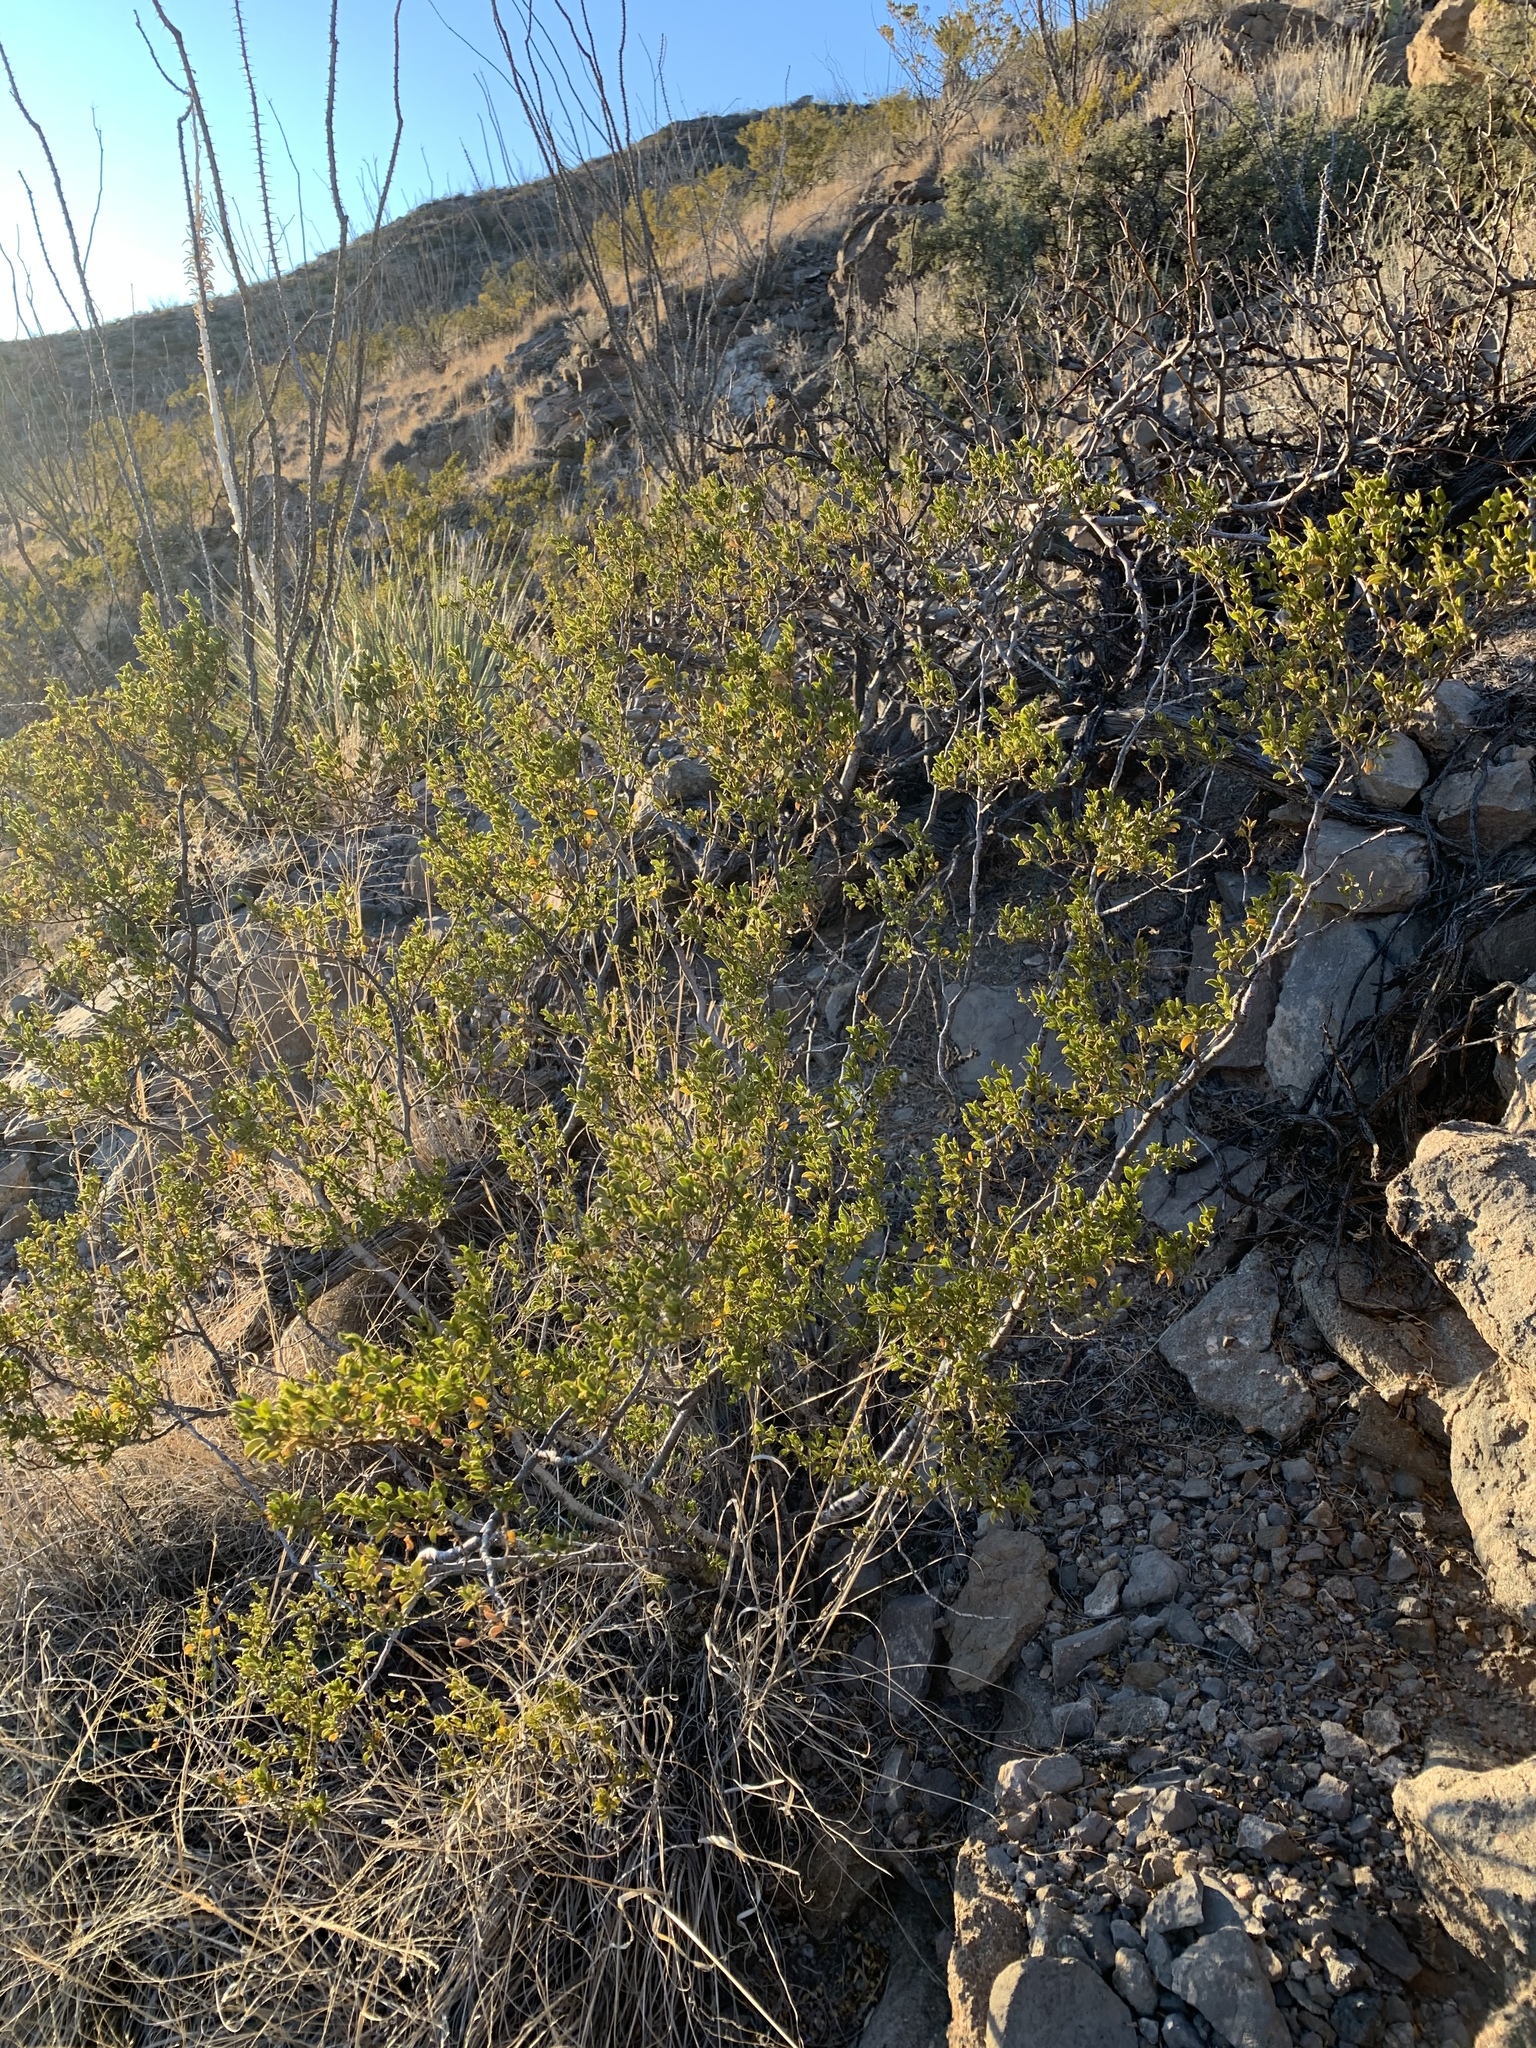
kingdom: Plantae
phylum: Tracheophyta
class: Magnoliopsida
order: Zygophyllales
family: Zygophyllaceae
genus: Larrea
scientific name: Larrea tridentata
